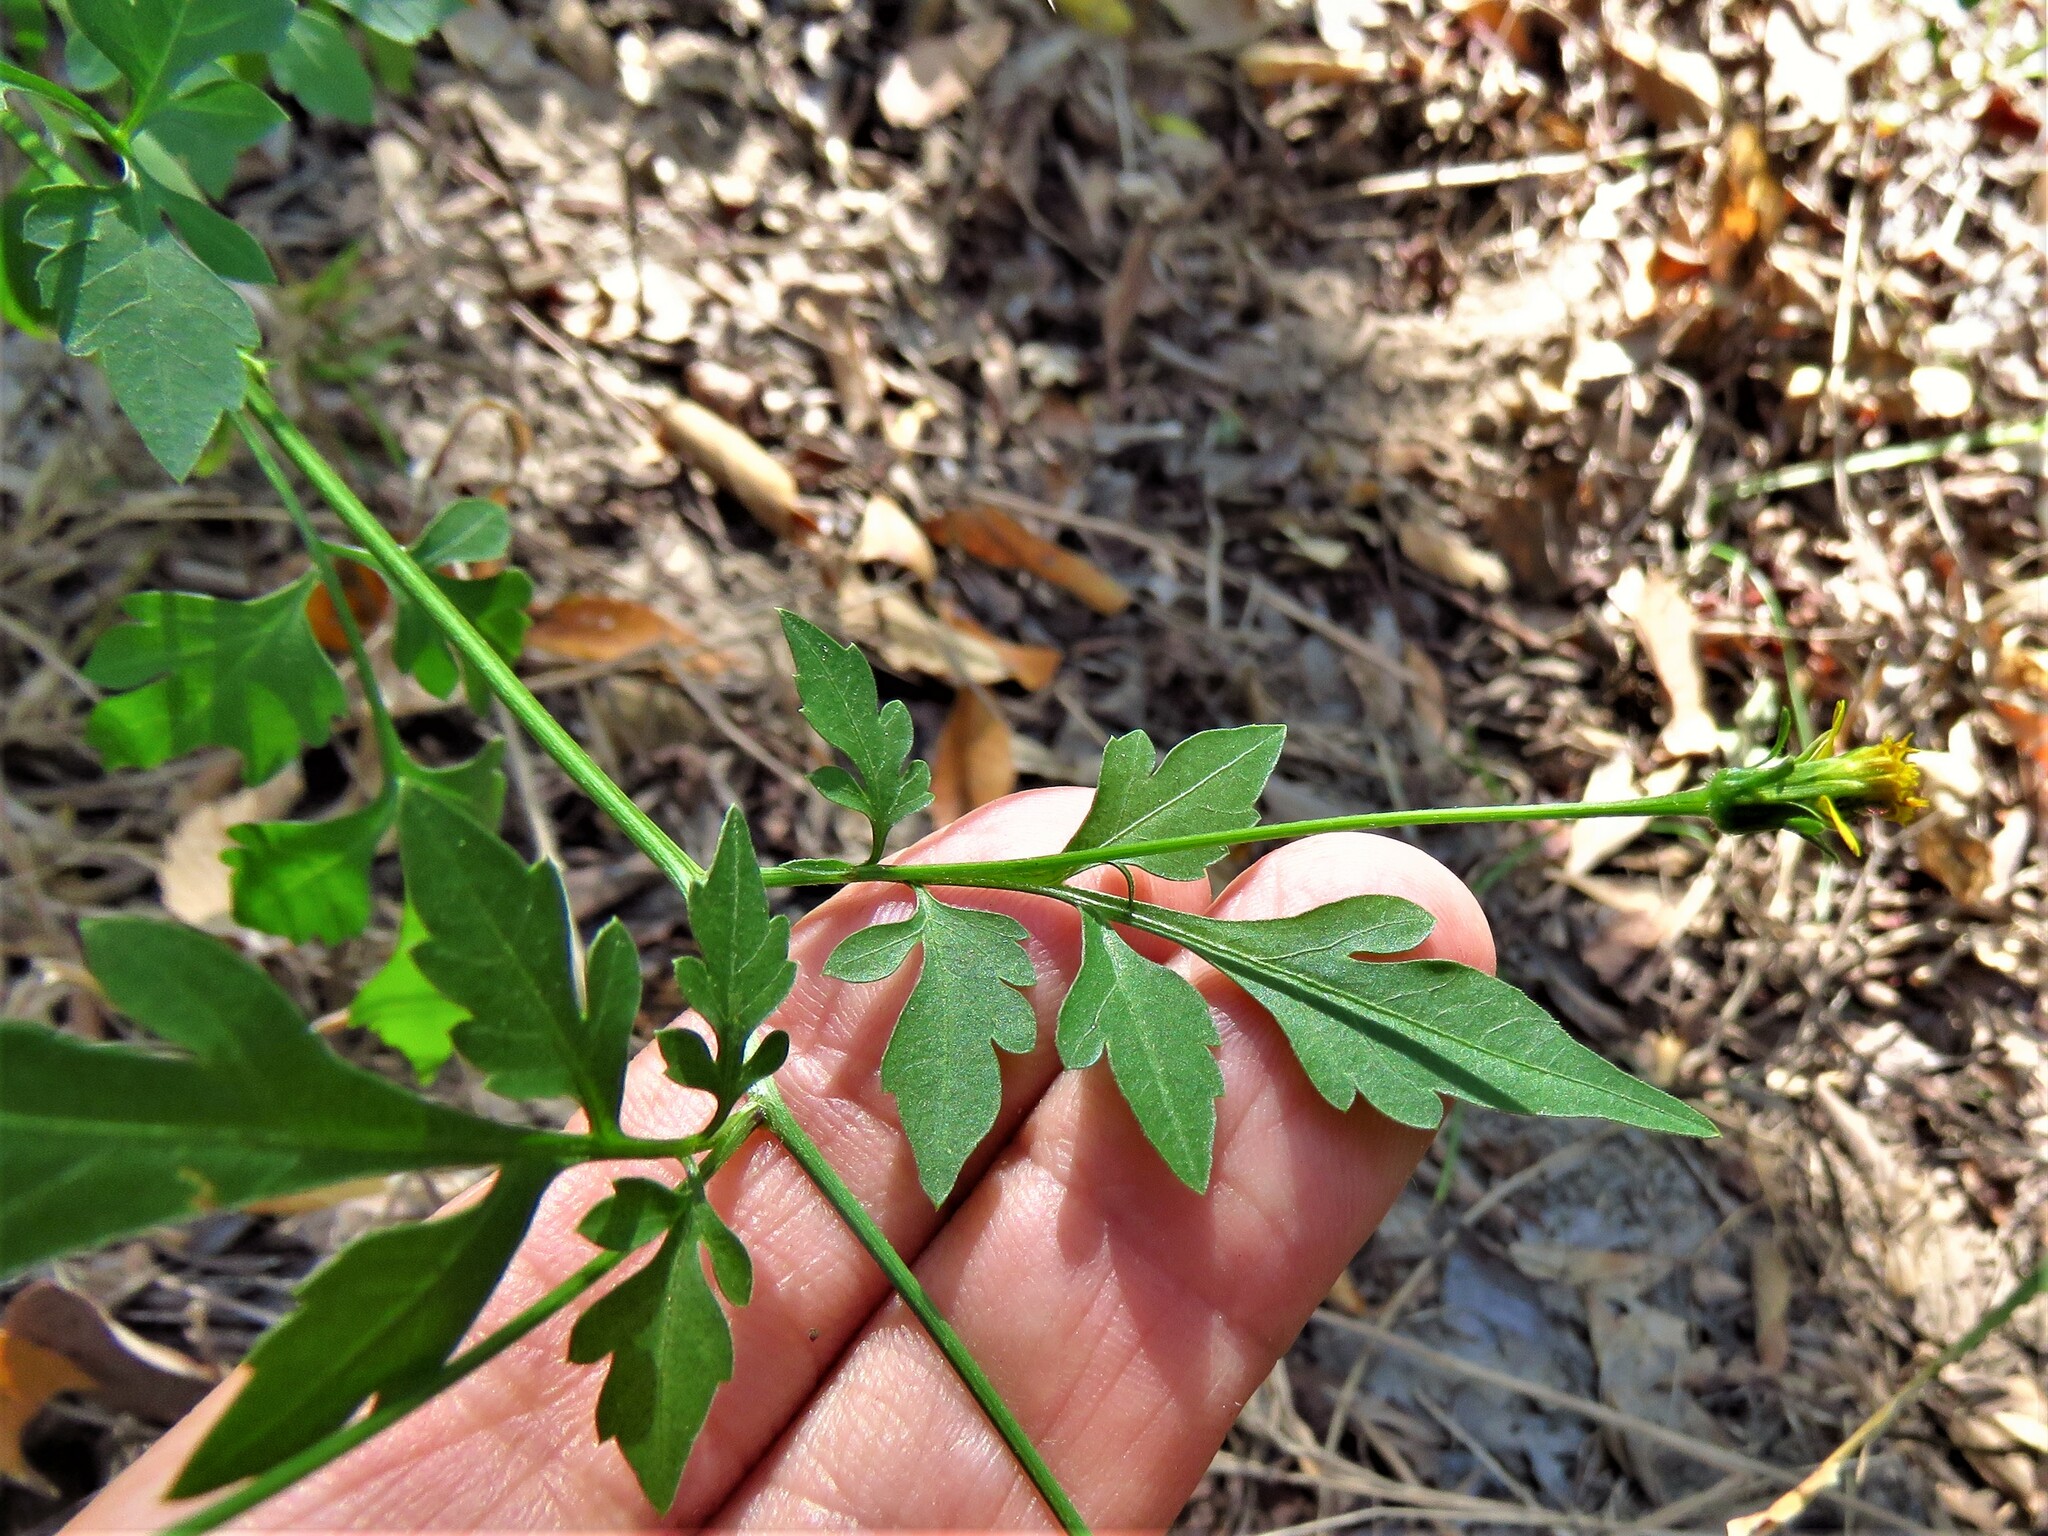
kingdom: Plantae
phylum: Tracheophyta
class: Magnoliopsida
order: Asterales
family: Asteraceae
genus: Bidens
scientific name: Bidens bipinnata
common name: Spanish-needles
